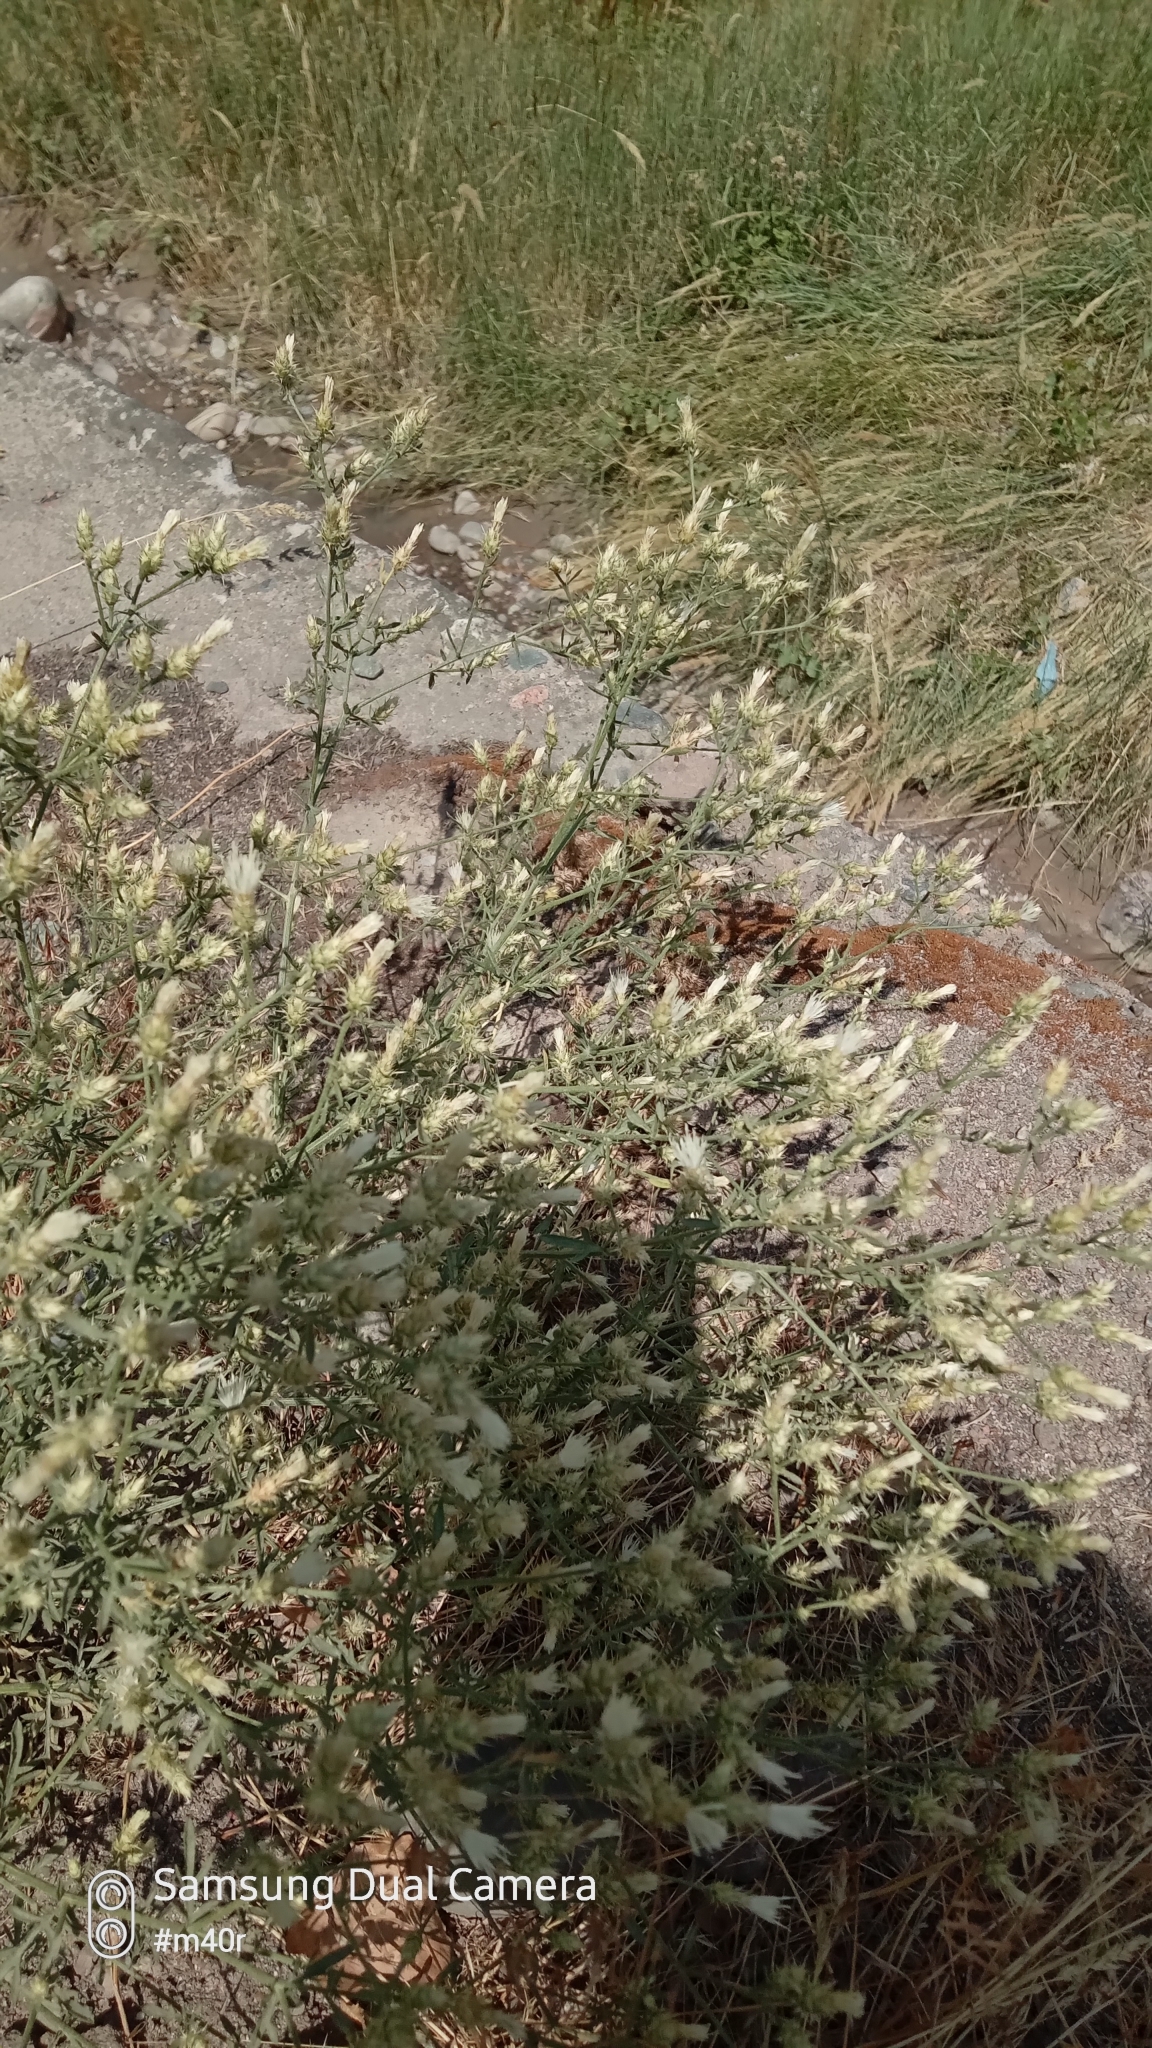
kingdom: Plantae
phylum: Tracheophyta
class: Magnoliopsida
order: Asterales
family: Asteraceae
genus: Centaurea
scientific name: Centaurea diffusa
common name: Diffuse knapweed
